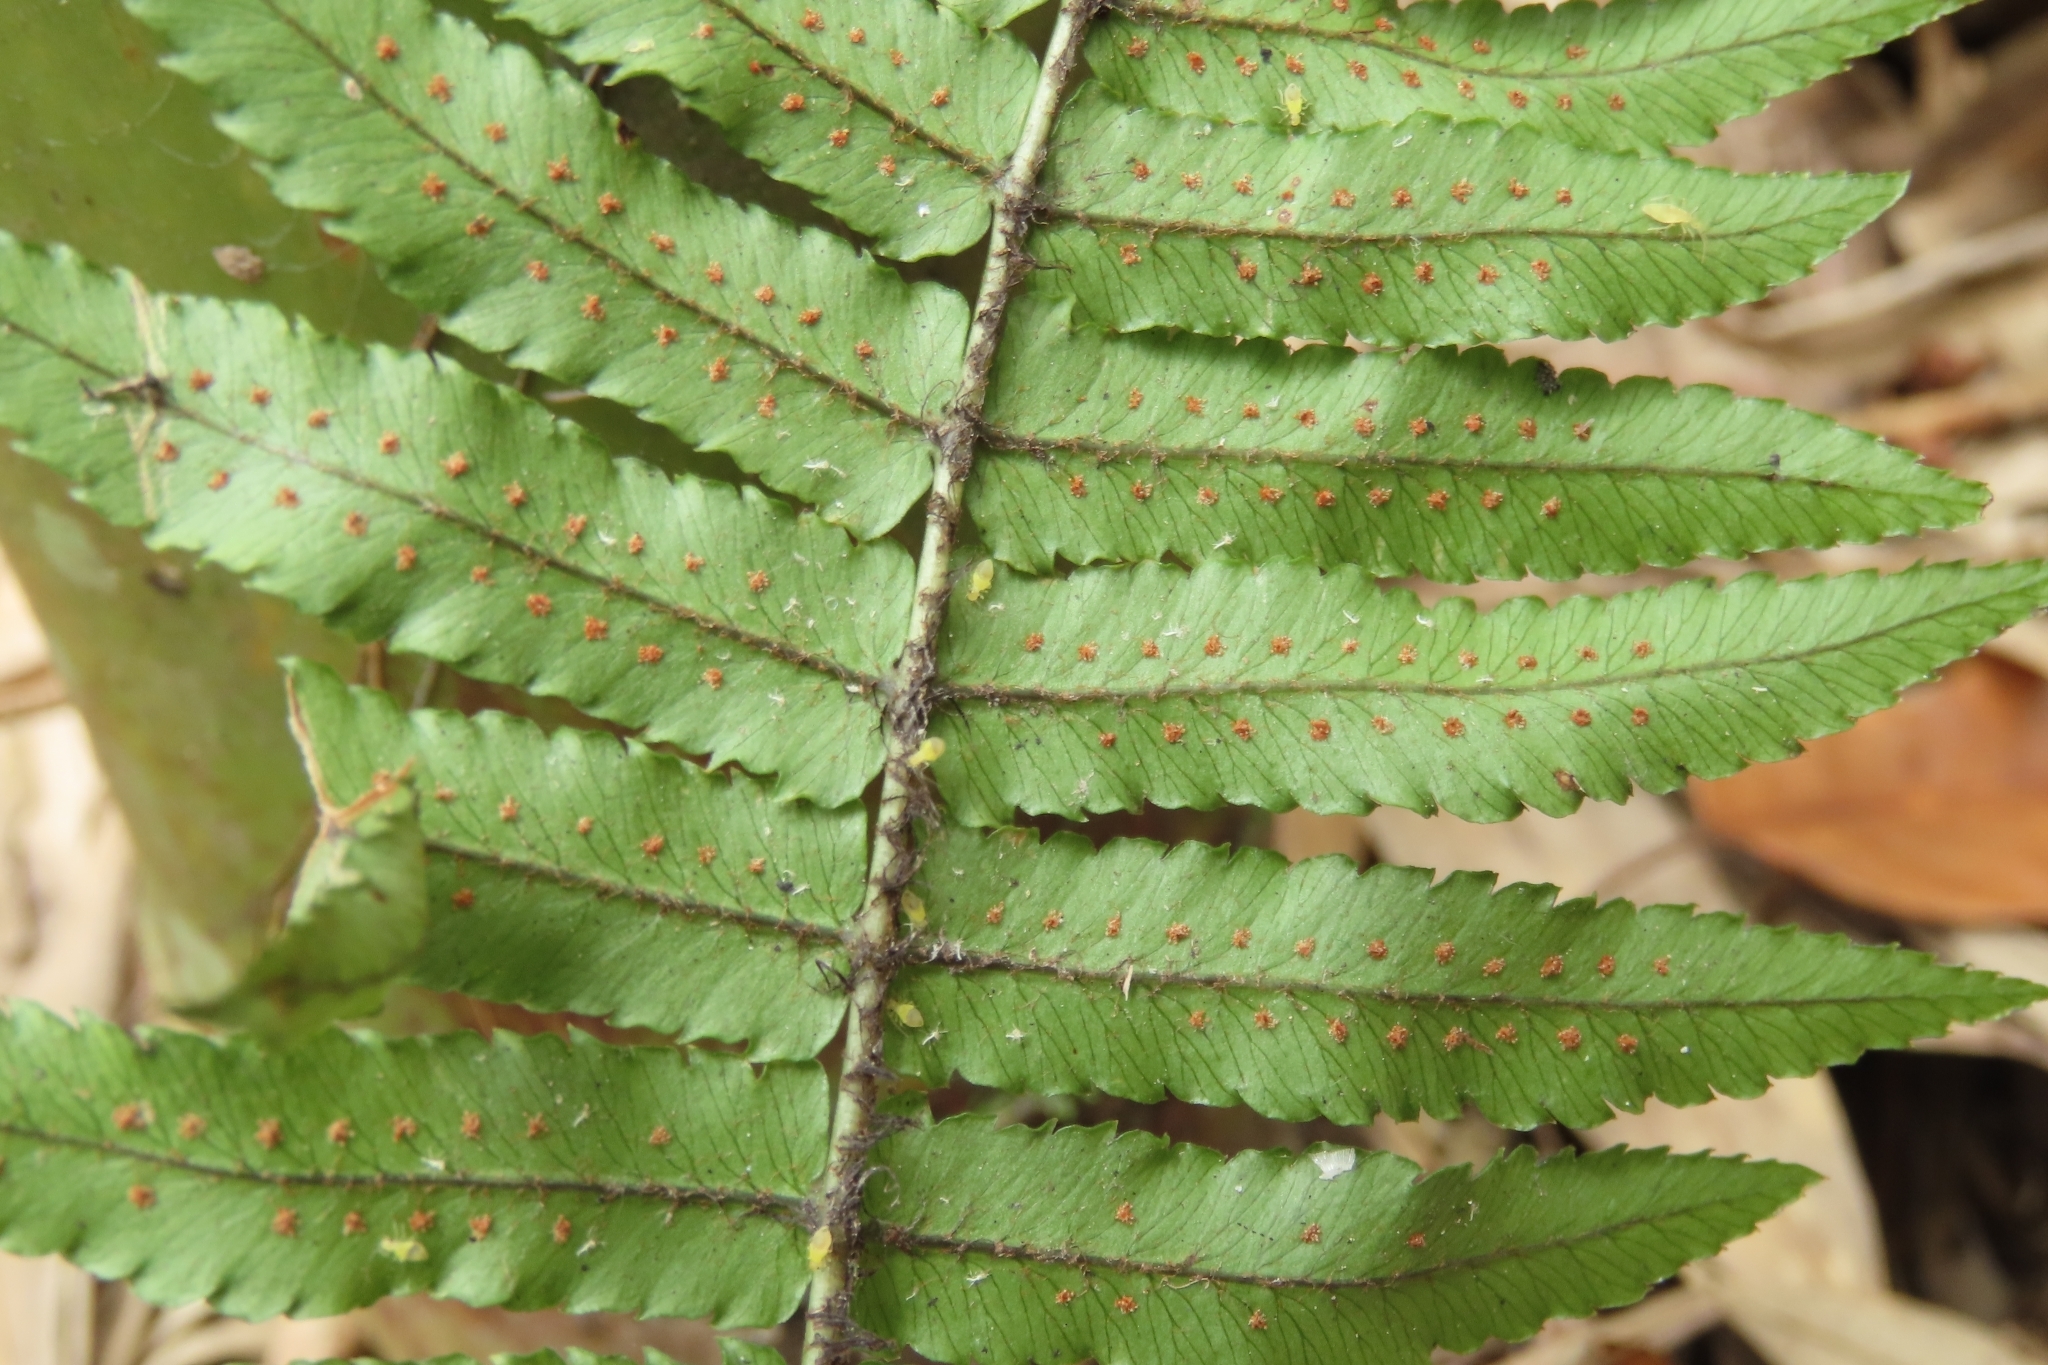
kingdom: Plantae
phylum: Tracheophyta
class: Polypodiopsida
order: Polypodiales
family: Dryopteridaceae
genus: Dryopteris
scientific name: Dryopteris cycadina
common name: Shaggy wood fern
